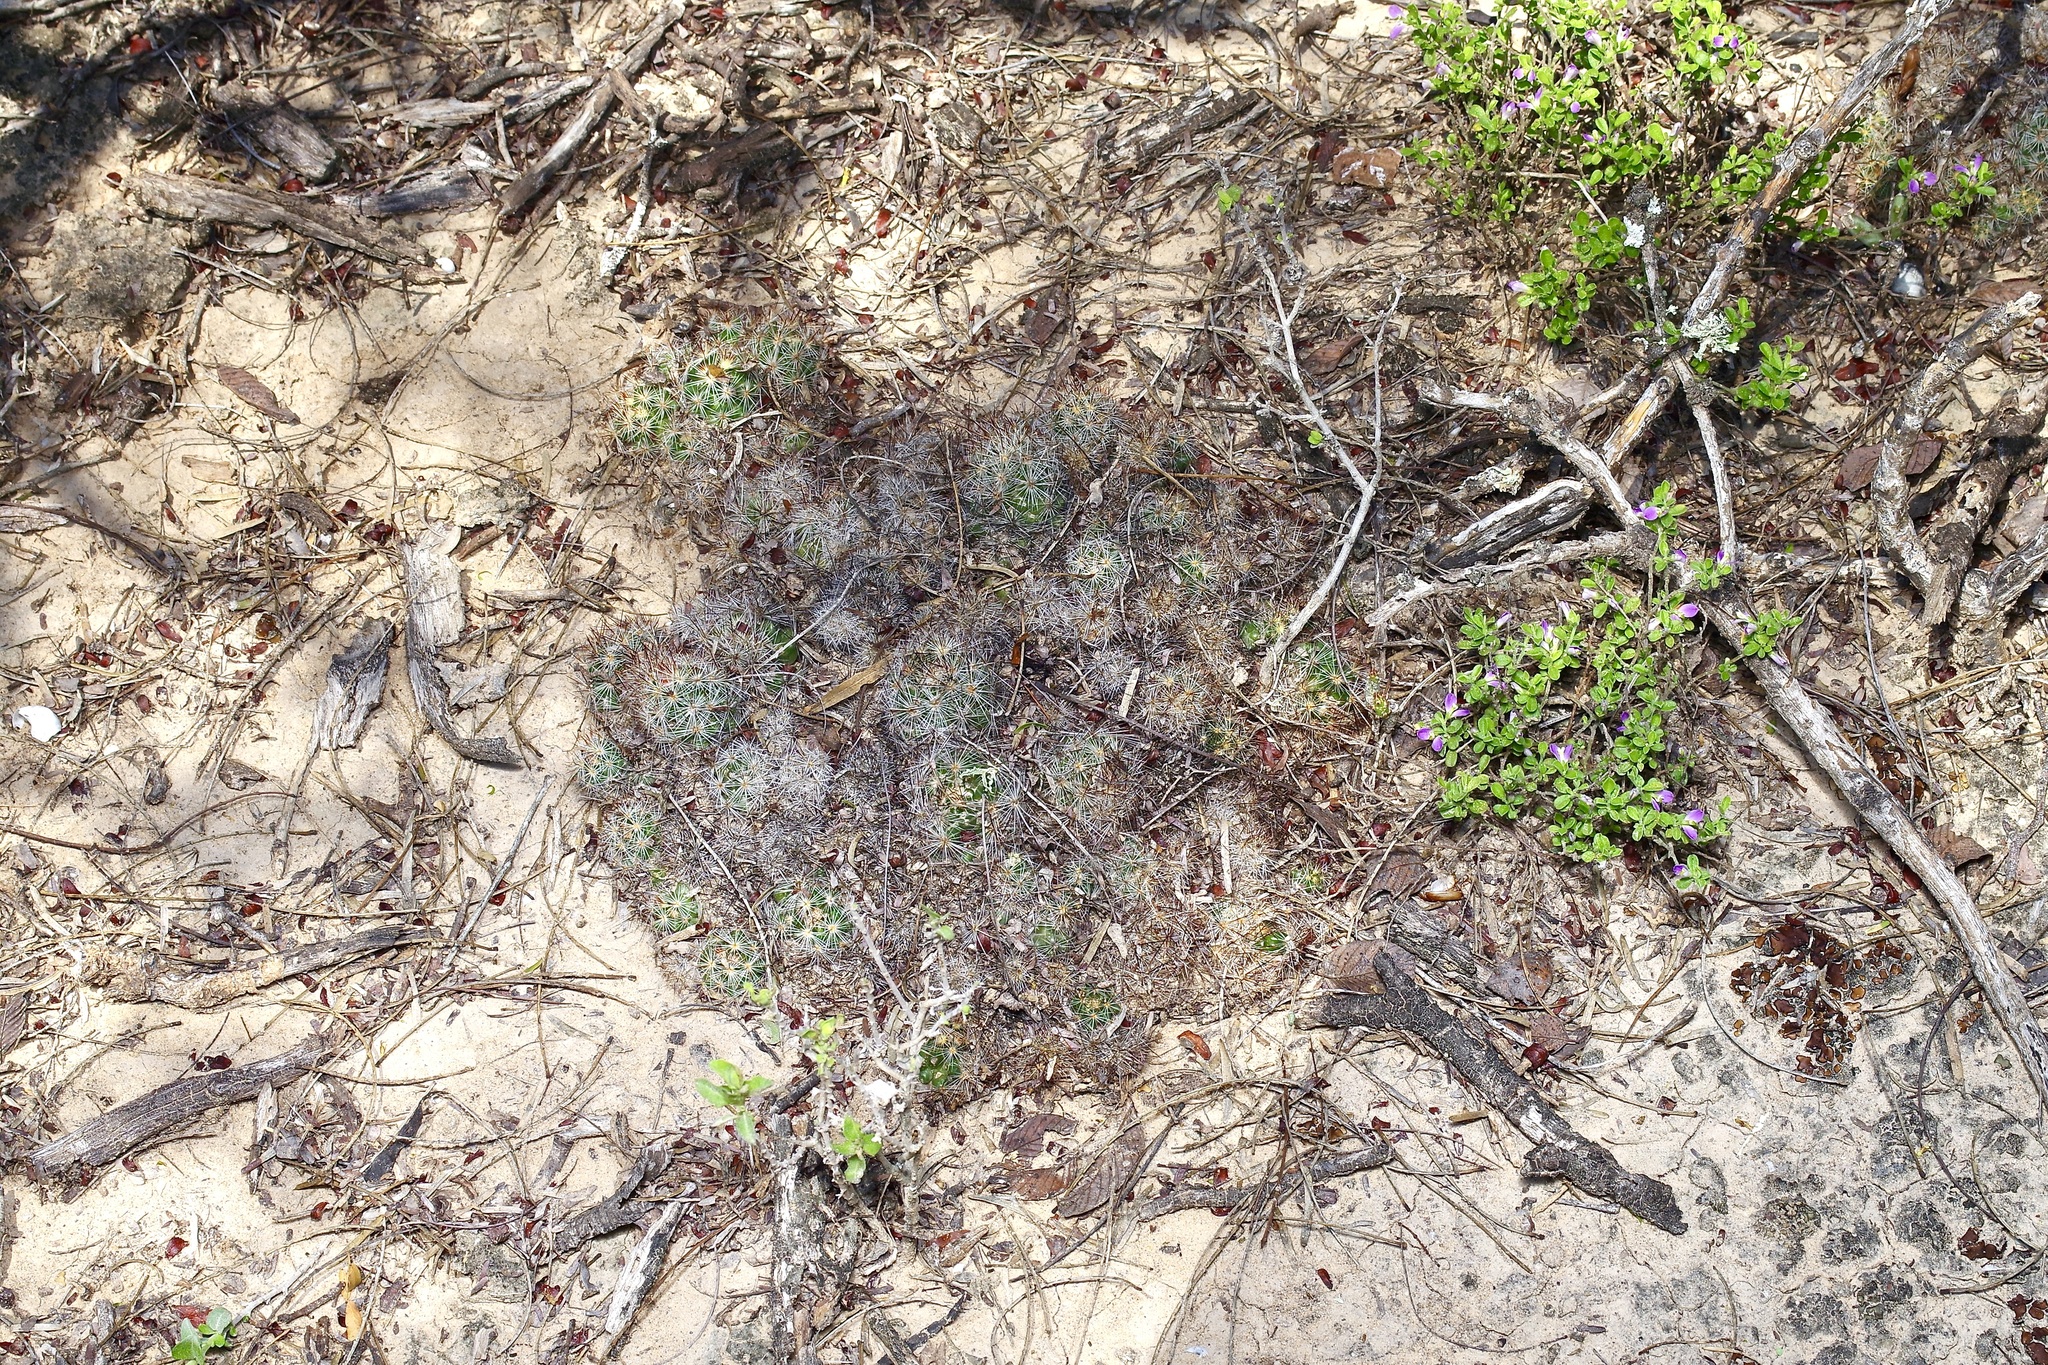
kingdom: Plantae
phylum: Tracheophyta
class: Magnoliopsida
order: Caryophyllales
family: Cactaceae
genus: Pelecyphora
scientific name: Pelecyphora emskoetteriana
